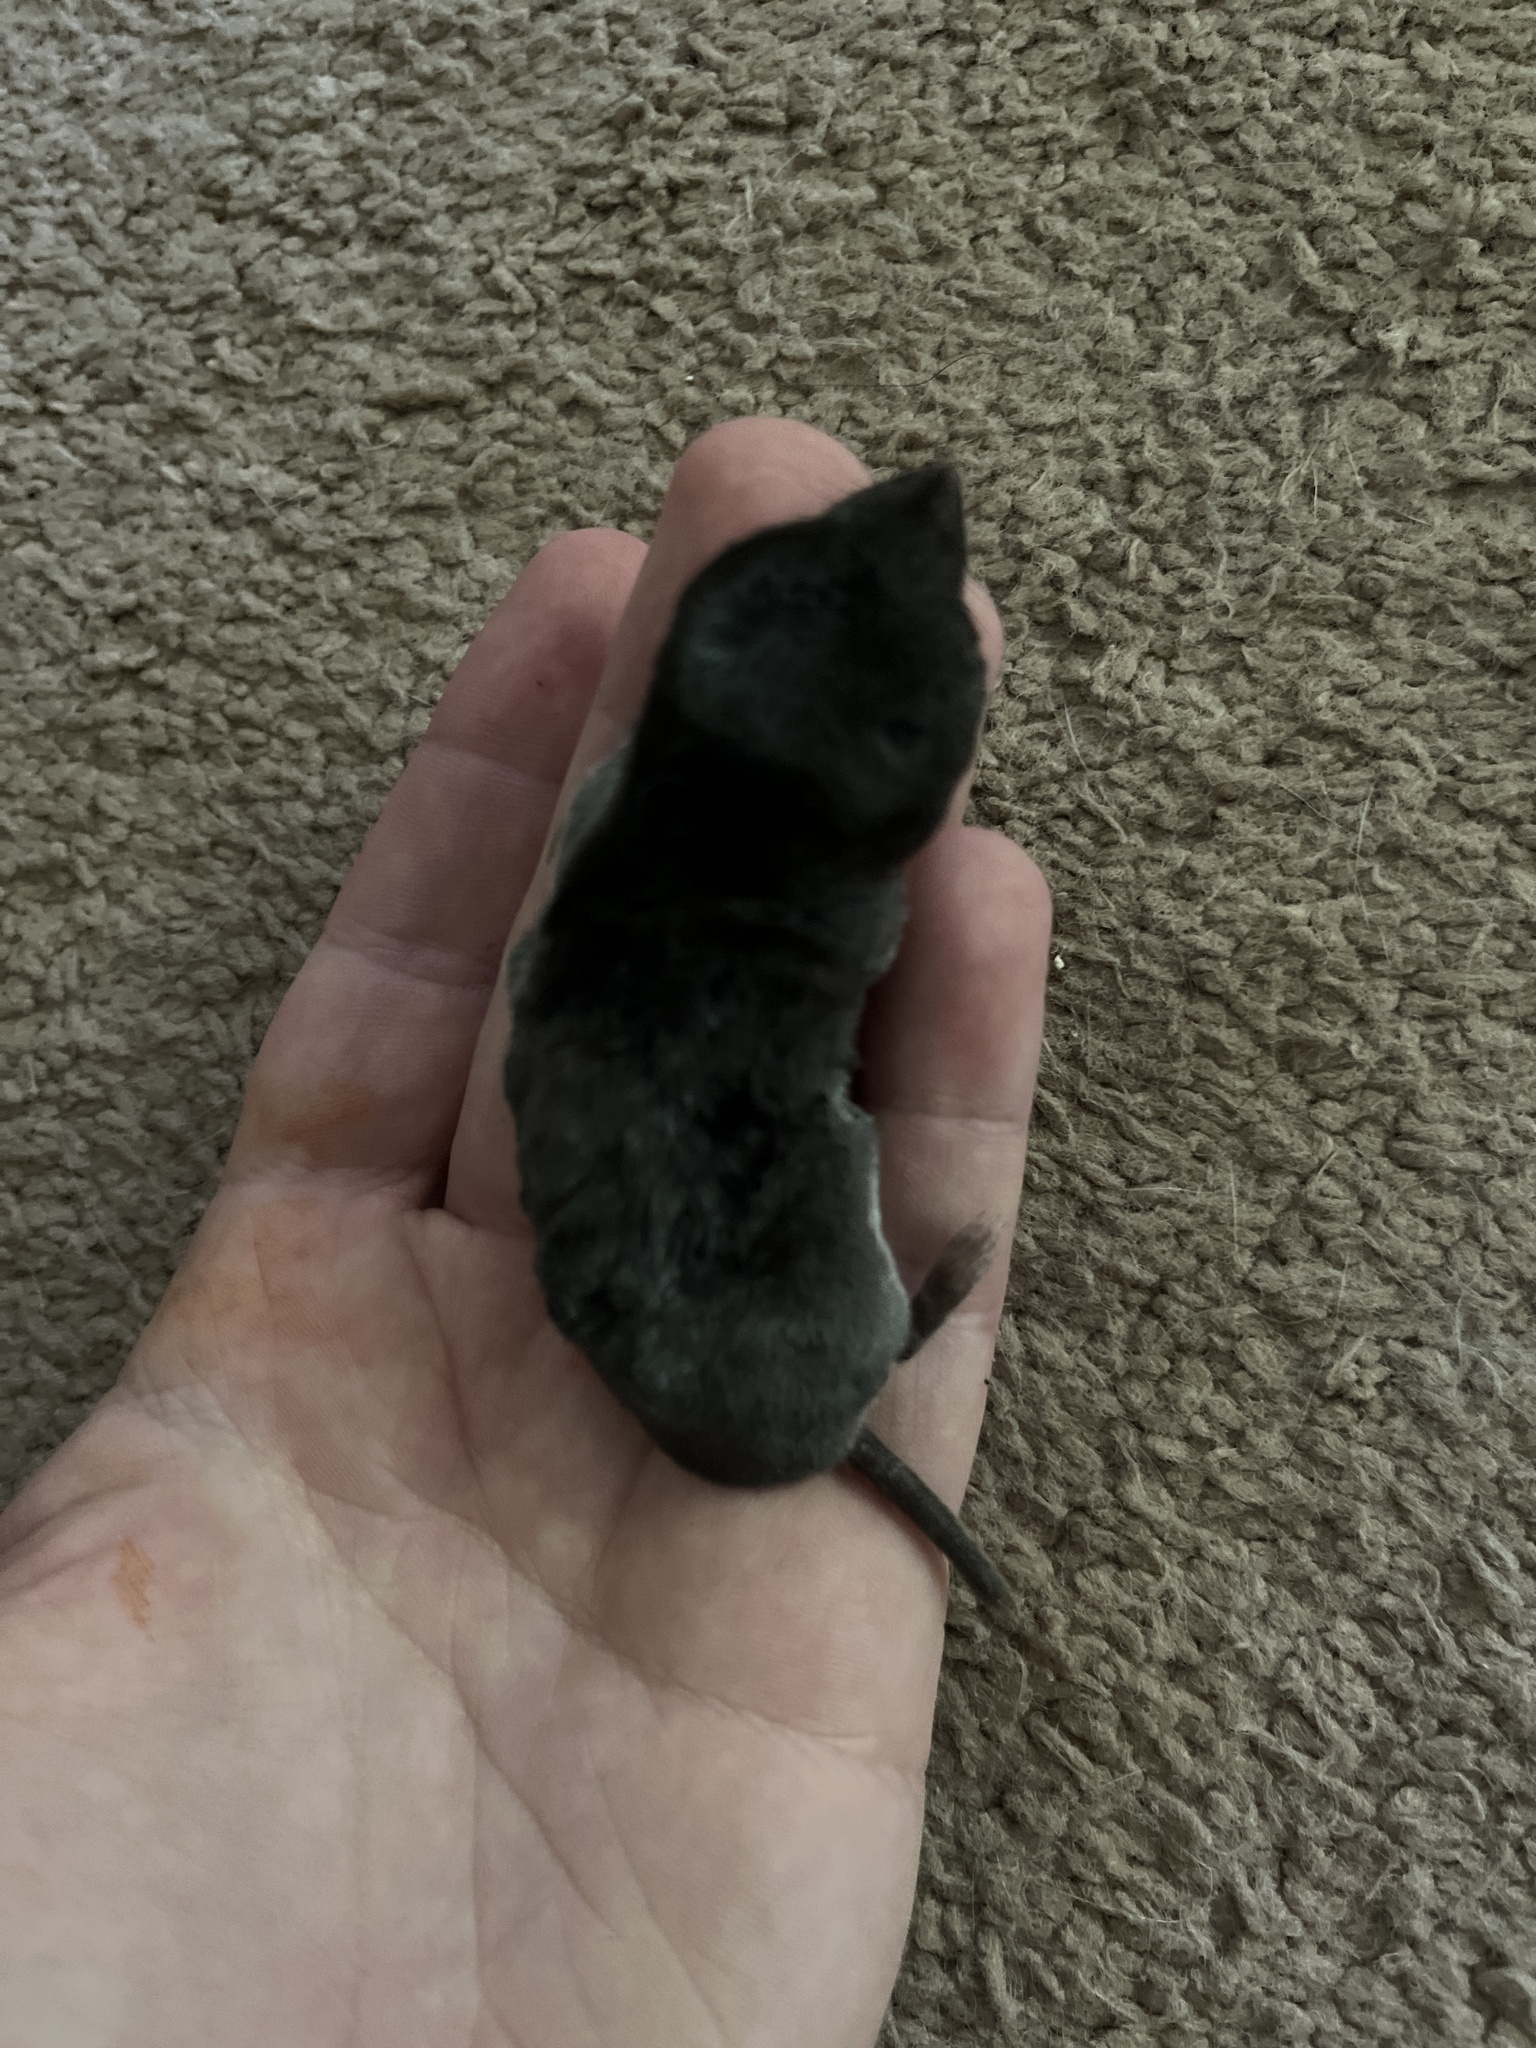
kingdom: Animalia
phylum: Chordata
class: Mammalia
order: Soricomorpha
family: Soricidae
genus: Blarina
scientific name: Blarina brevicauda
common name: Northern short-tailed shrew
